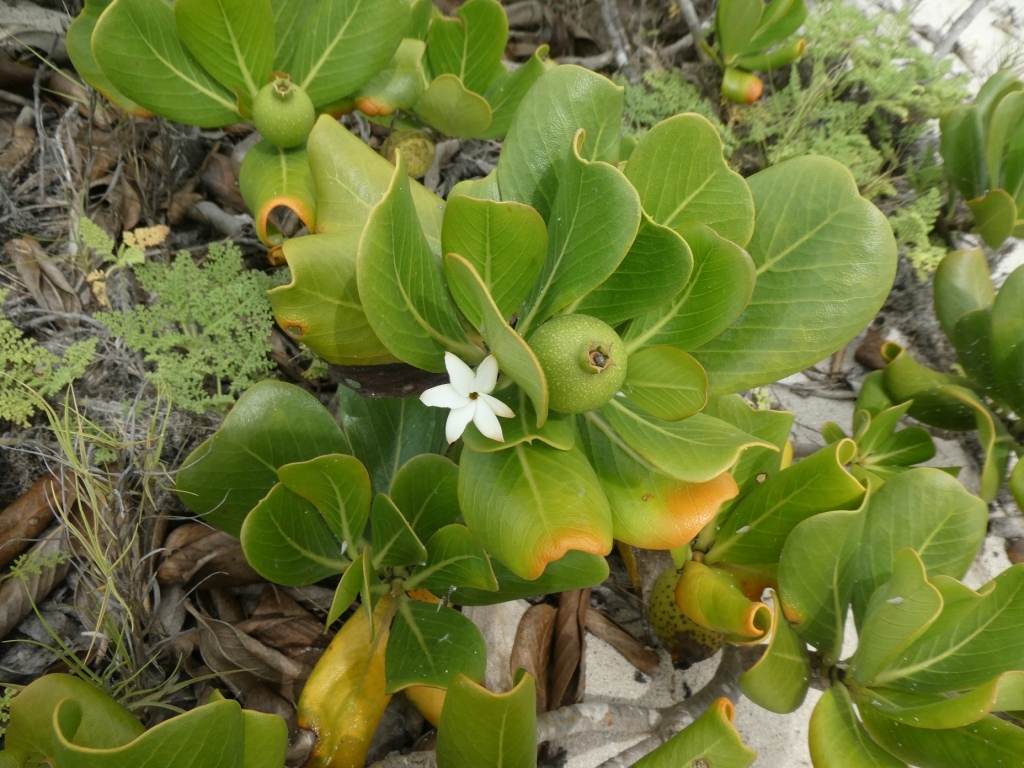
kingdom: Plantae
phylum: Tracheophyta
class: Magnoliopsida
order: Gentianales
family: Rubiaceae
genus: Casasia
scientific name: Casasia clusiifolia
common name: Seven-year apple
